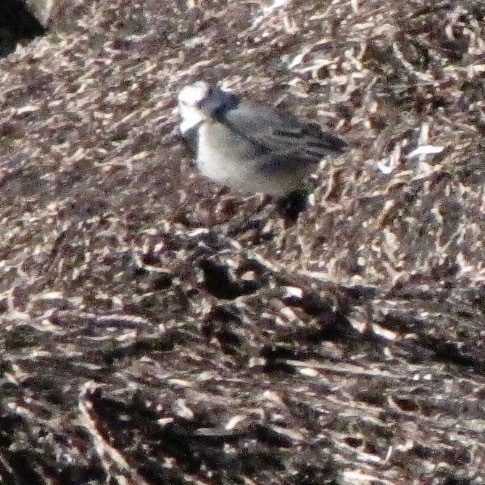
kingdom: Animalia
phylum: Chordata
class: Aves
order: Passeriformes
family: Motacillidae
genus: Motacilla
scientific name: Motacilla alba
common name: White wagtail
